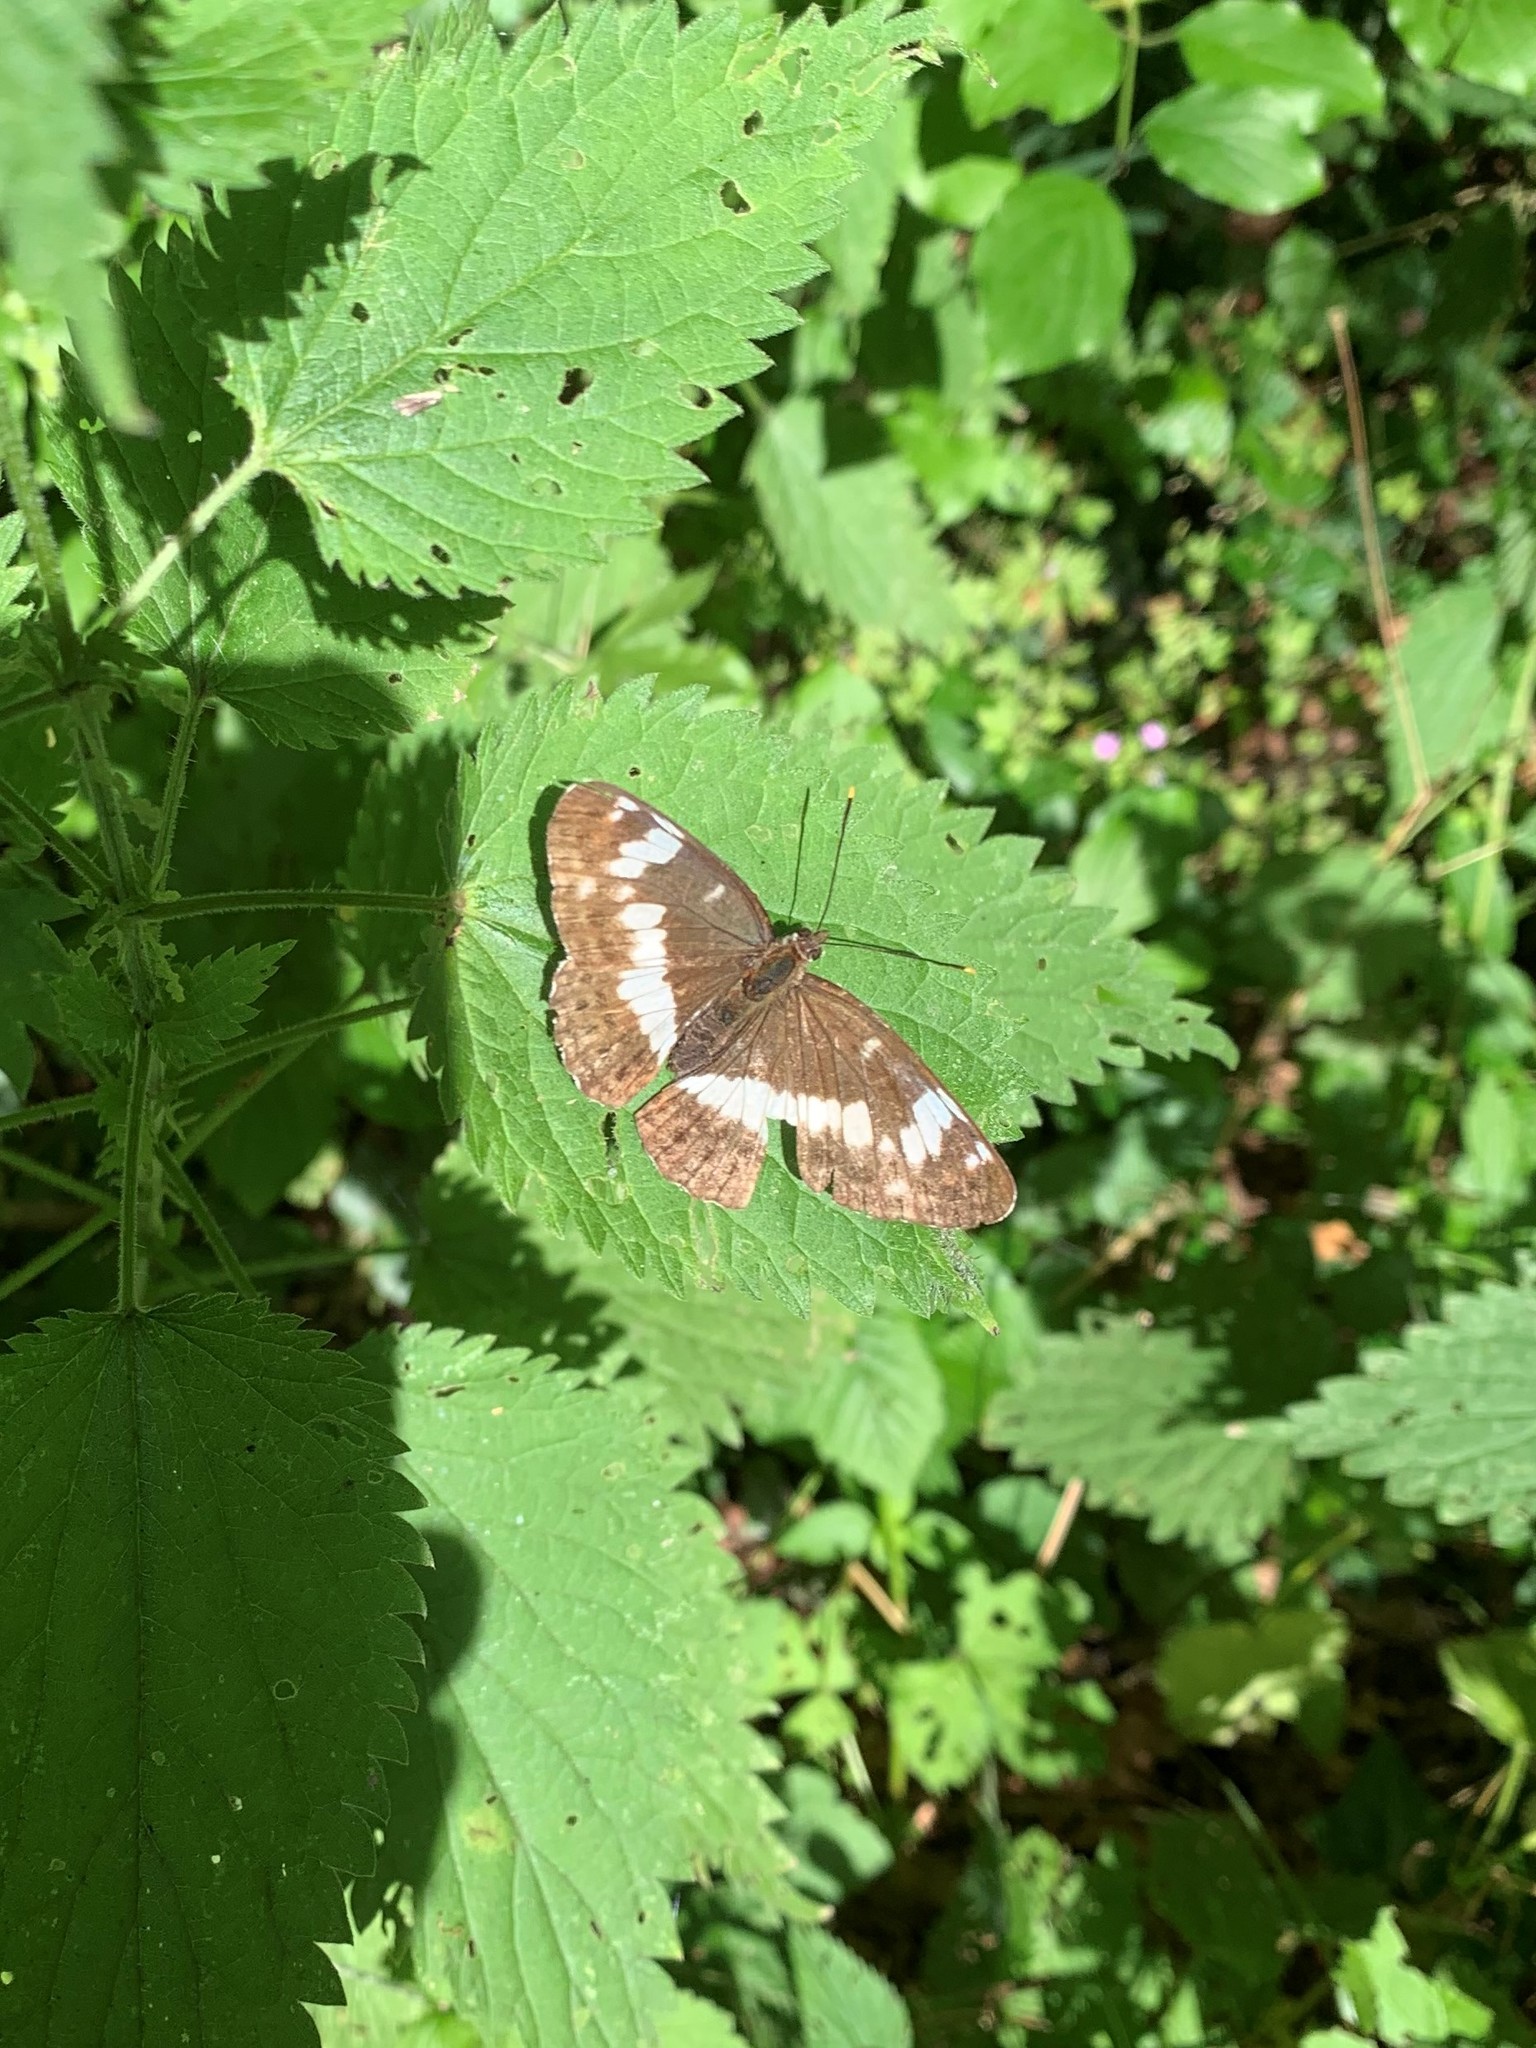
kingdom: Animalia
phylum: Arthropoda
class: Insecta
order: Lepidoptera
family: Nymphalidae
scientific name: Nymphalidae
